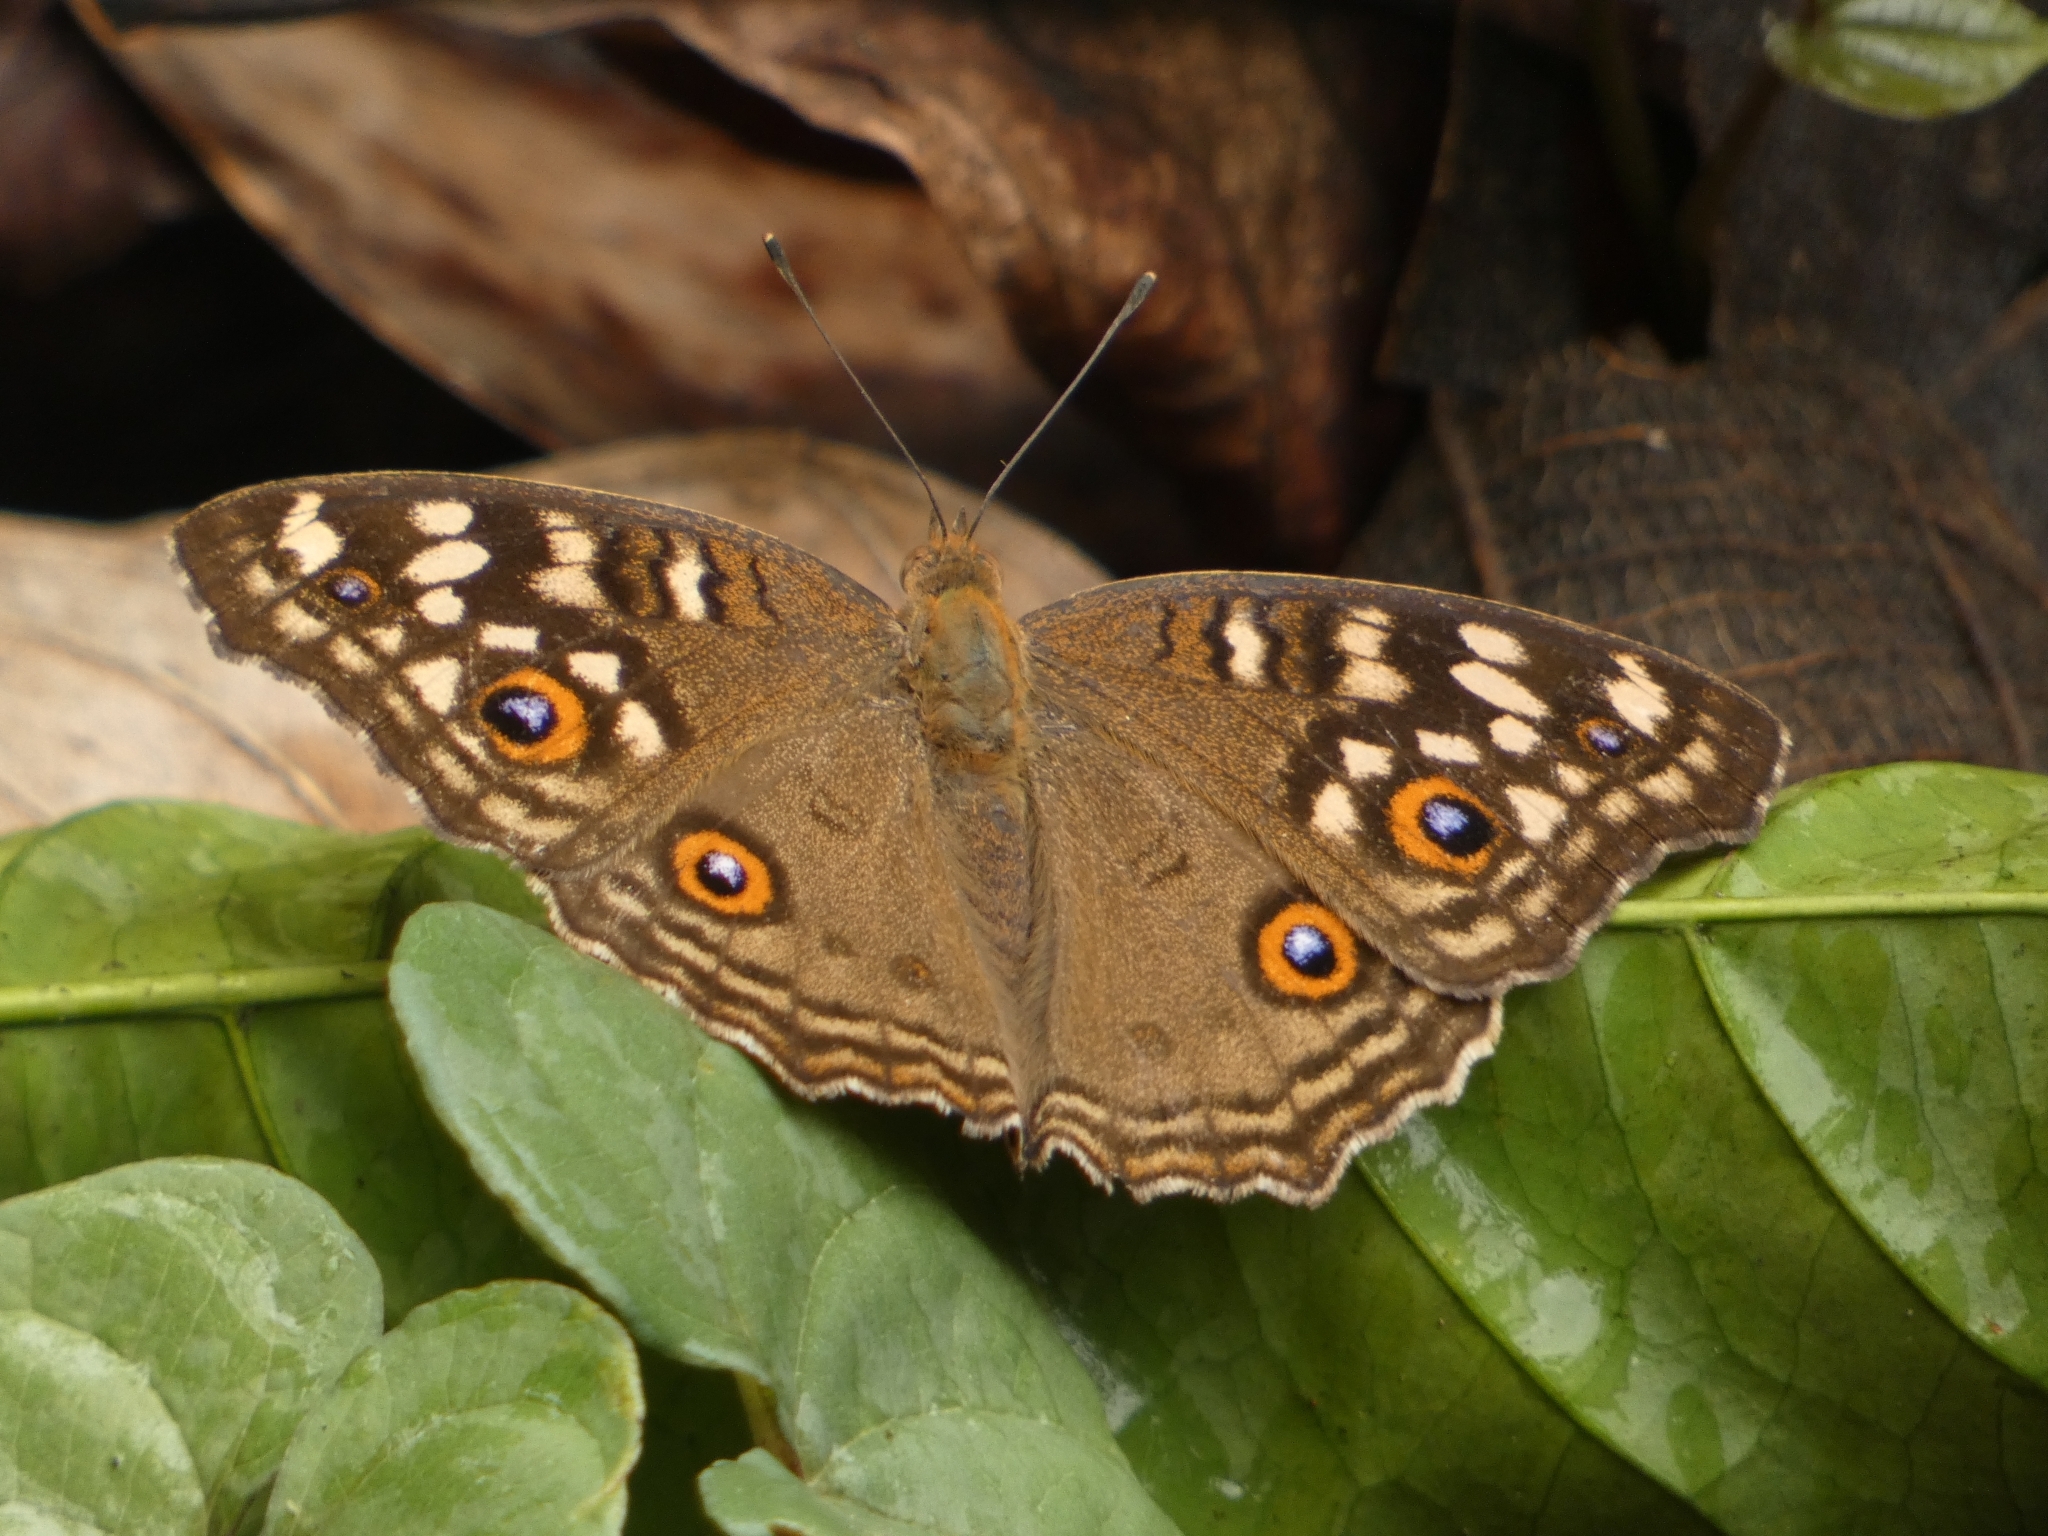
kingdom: Animalia
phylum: Arthropoda
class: Insecta
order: Lepidoptera
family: Nymphalidae
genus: Junonia
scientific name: Junonia lemonias
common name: Lemon pansy
